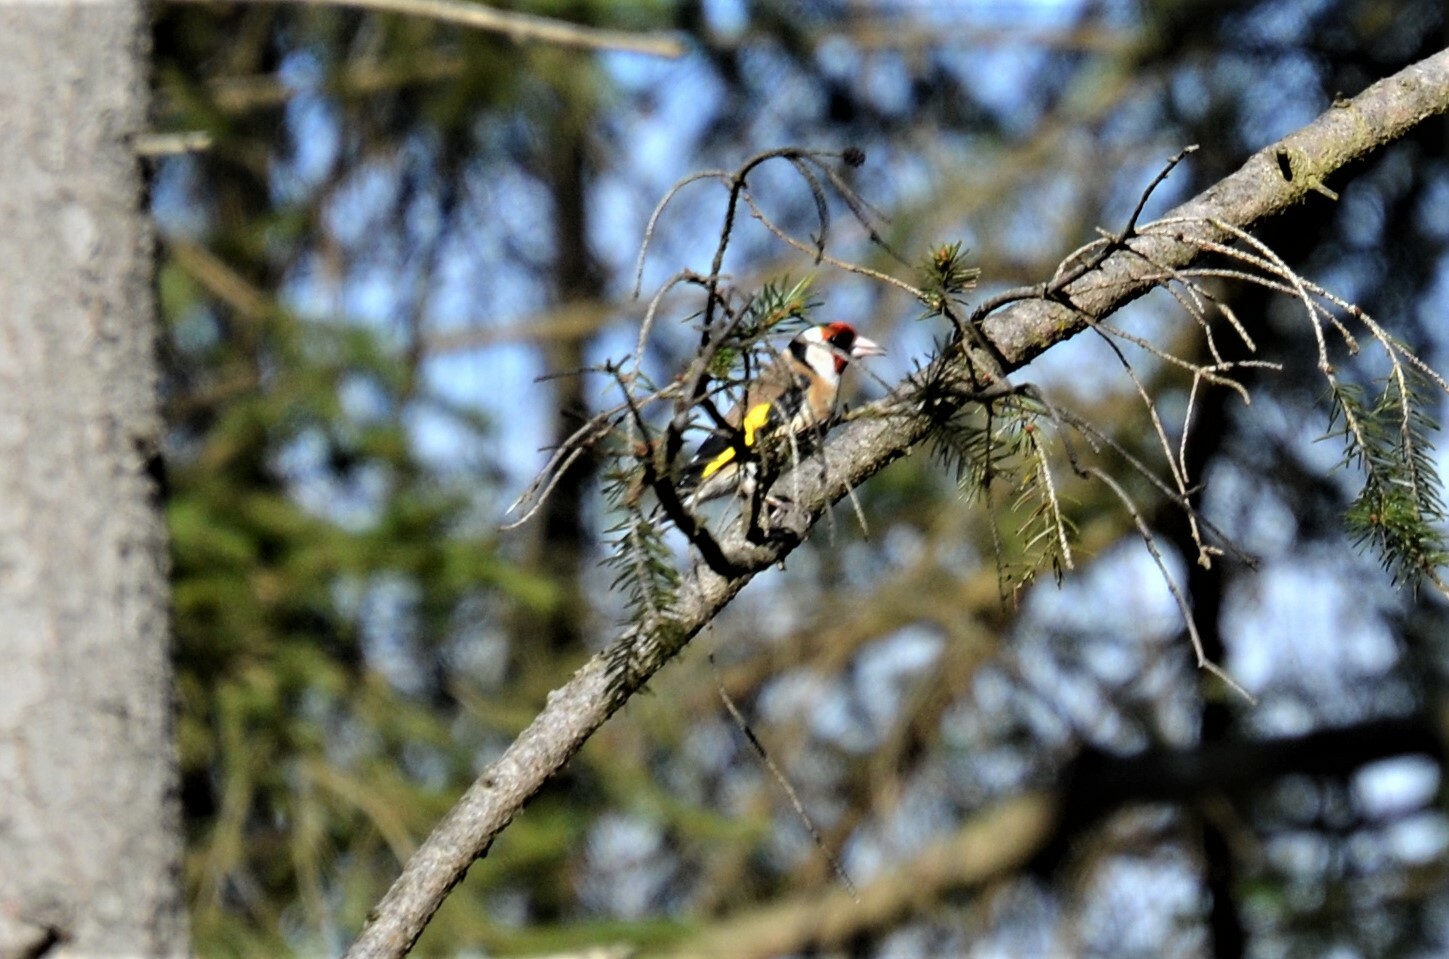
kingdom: Animalia
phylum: Chordata
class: Aves
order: Passeriformes
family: Fringillidae
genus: Carduelis
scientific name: Carduelis carduelis
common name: European goldfinch
